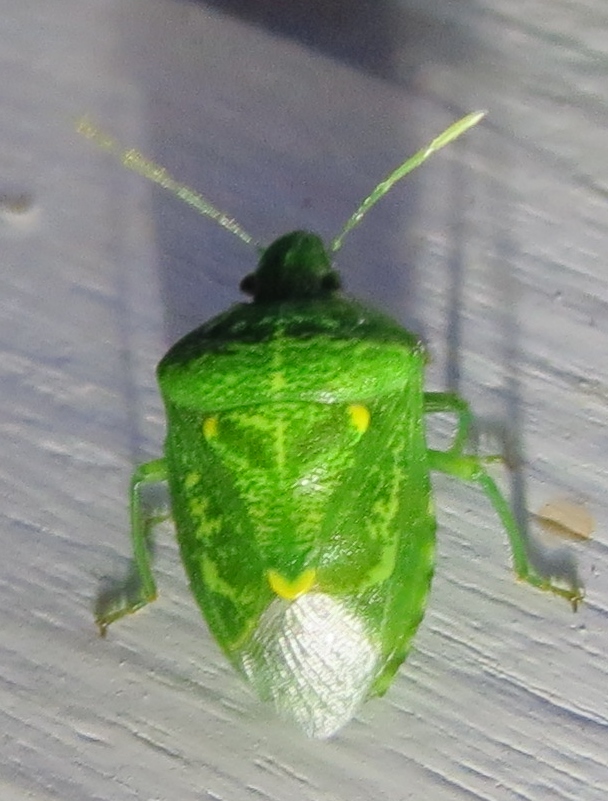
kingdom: Animalia
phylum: Arthropoda
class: Insecta
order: Hemiptera
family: Pentatomidae
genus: Banasa
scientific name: Banasa euchlora
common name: Cedar berry bug
